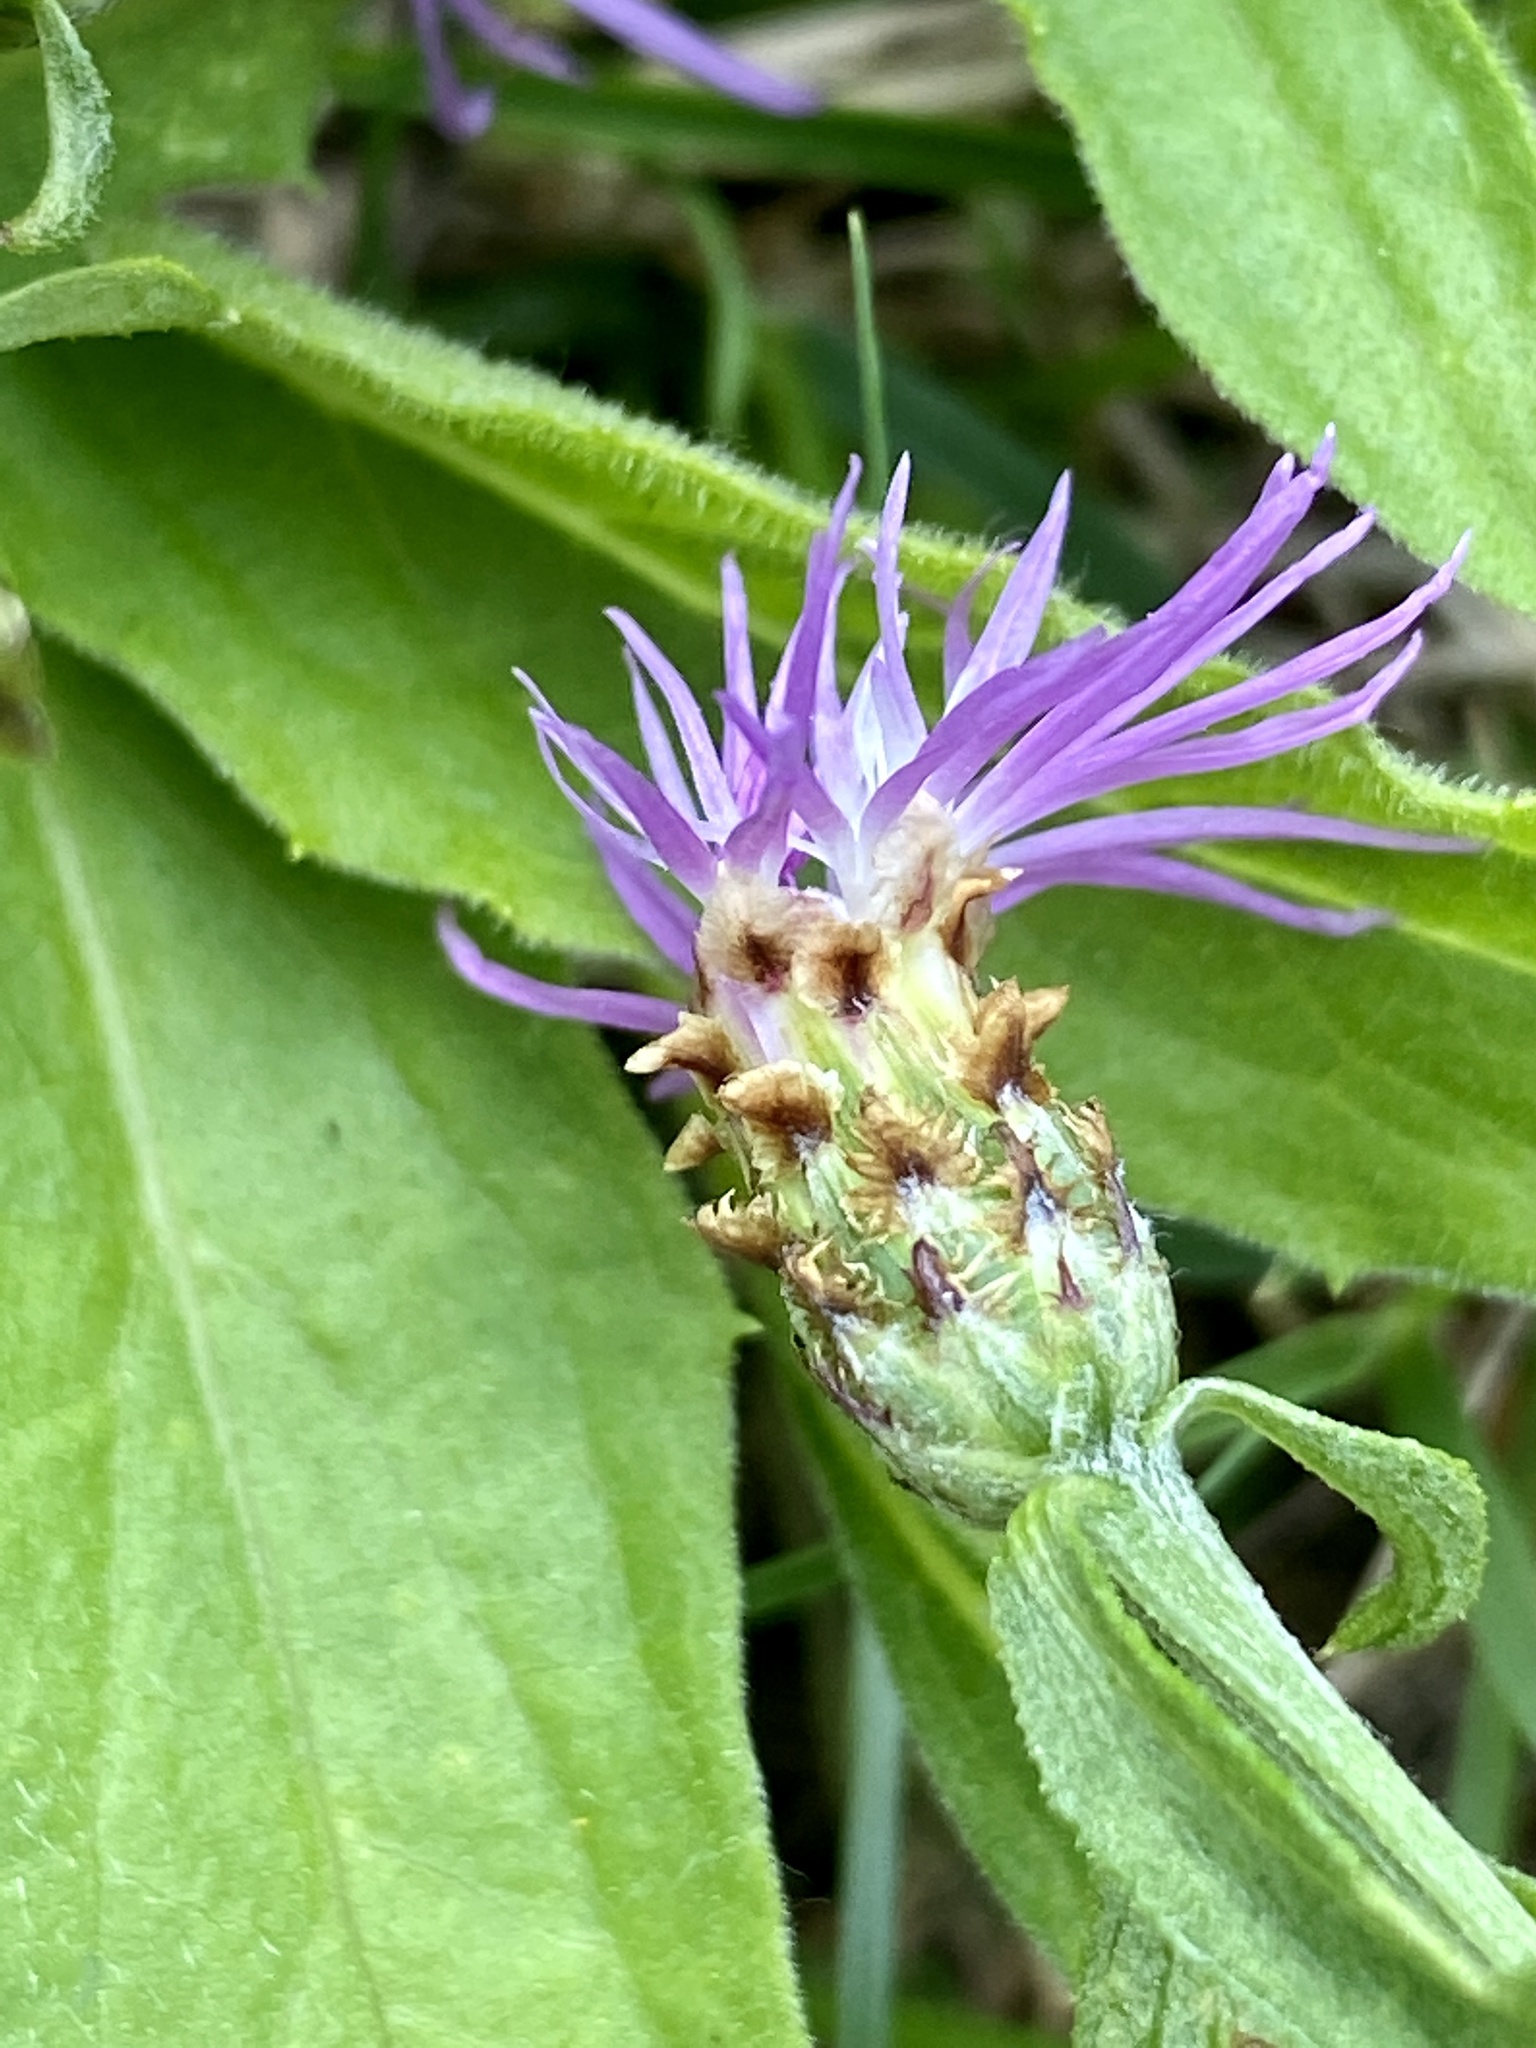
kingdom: Plantae
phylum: Tracheophyta
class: Magnoliopsida
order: Asterales
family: Asteraceae
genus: Centaurea
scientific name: Centaurea nigrescens
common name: Tyrol knapweed
